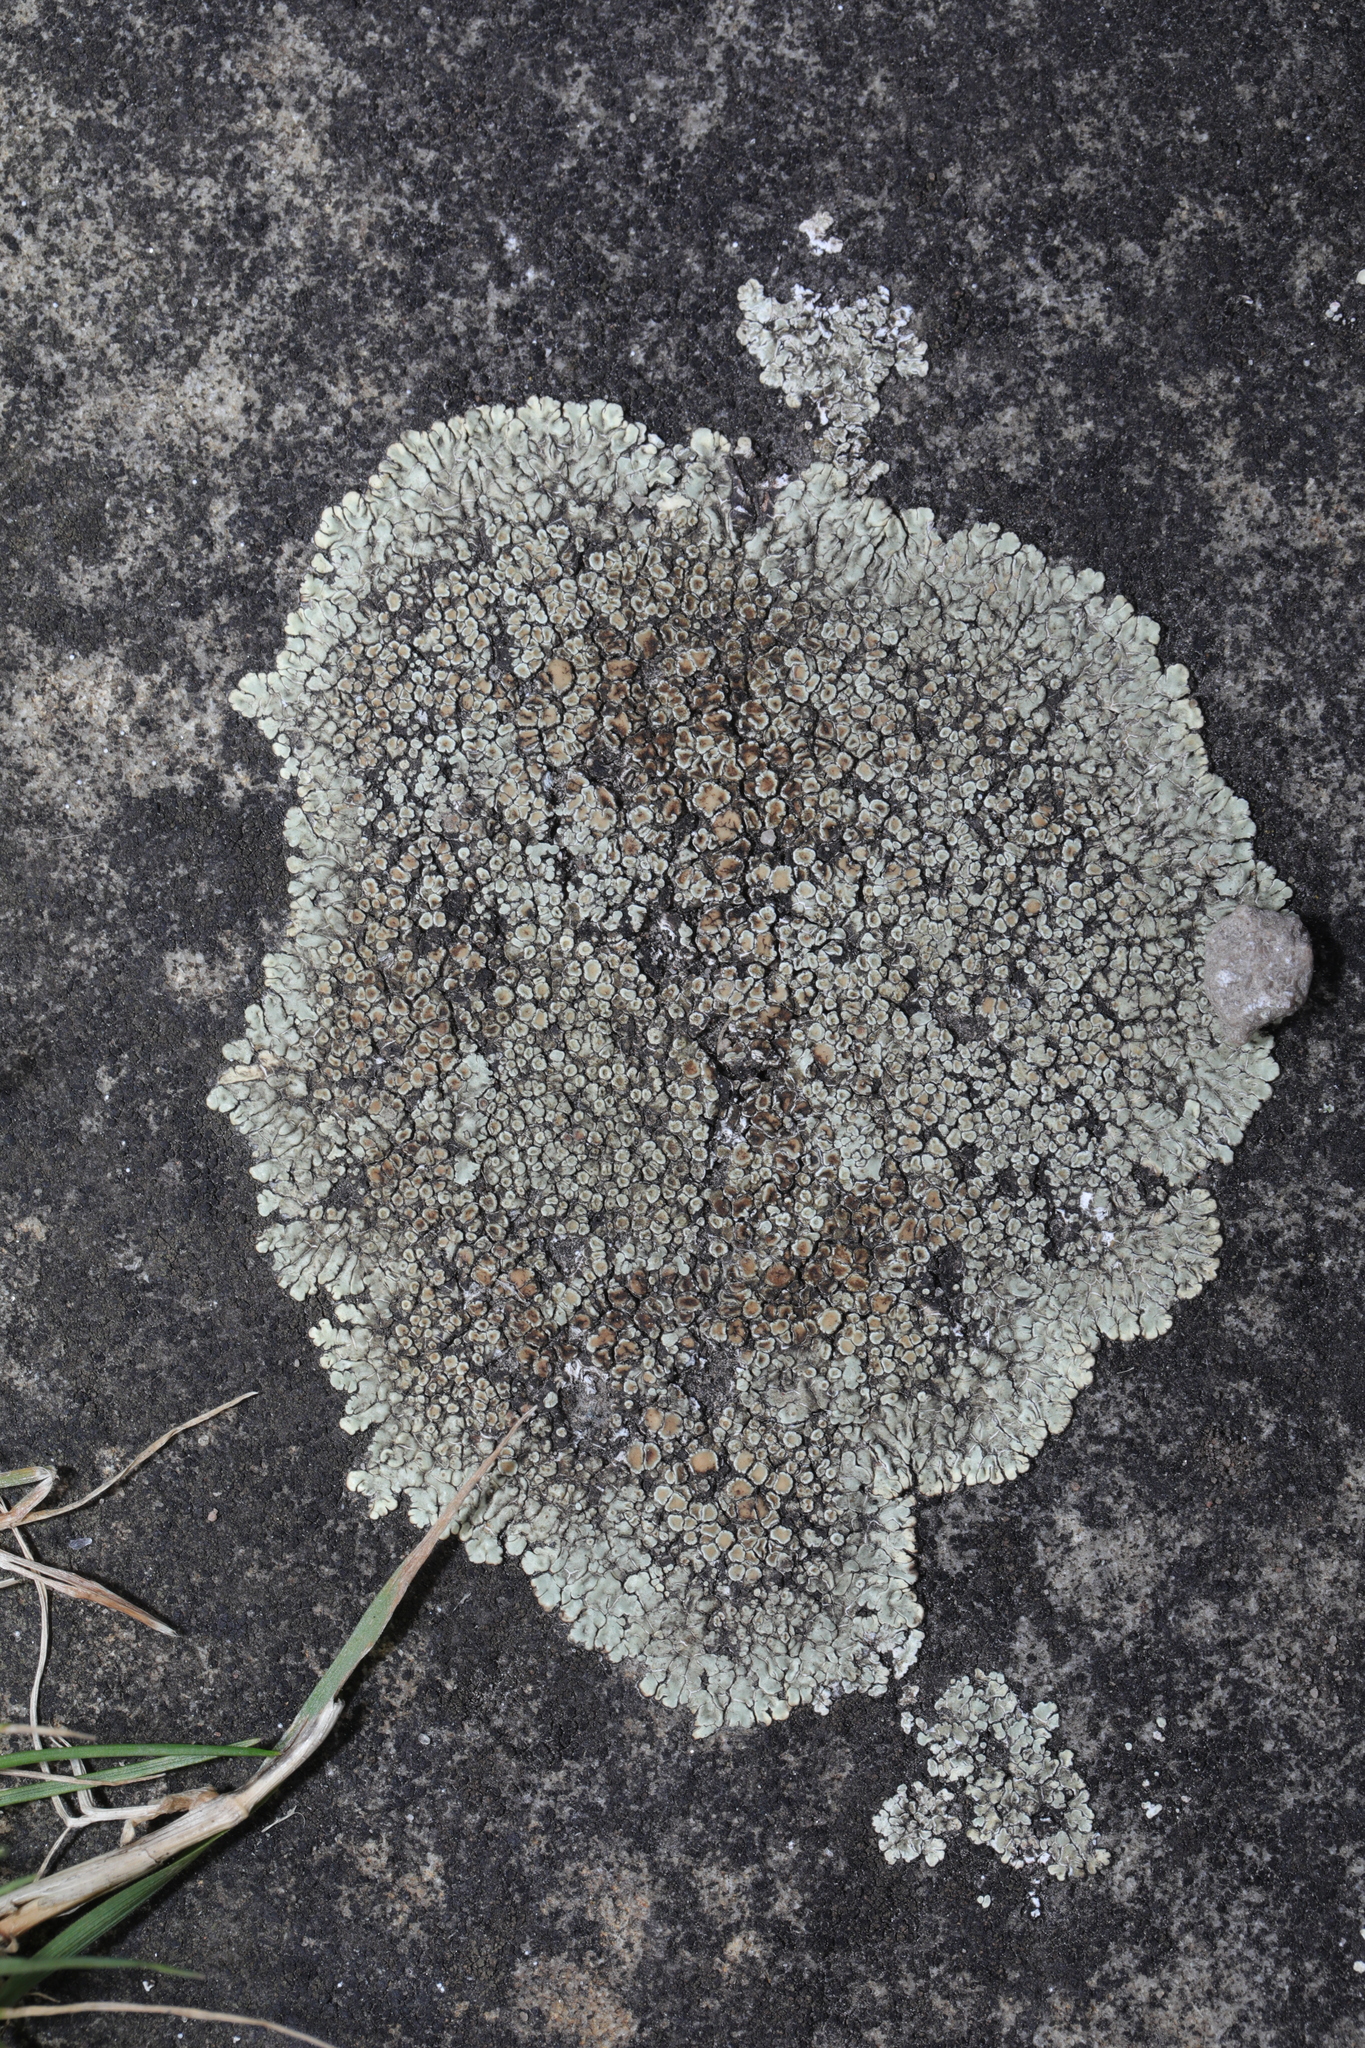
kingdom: Fungi
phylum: Ascomycota
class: Lecanoromycetes
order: Lecanorales
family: Lecanoraceae
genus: Protoparmeliopsis
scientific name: Protoparmeliopsis muralis
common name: Stonewall rim lichen
